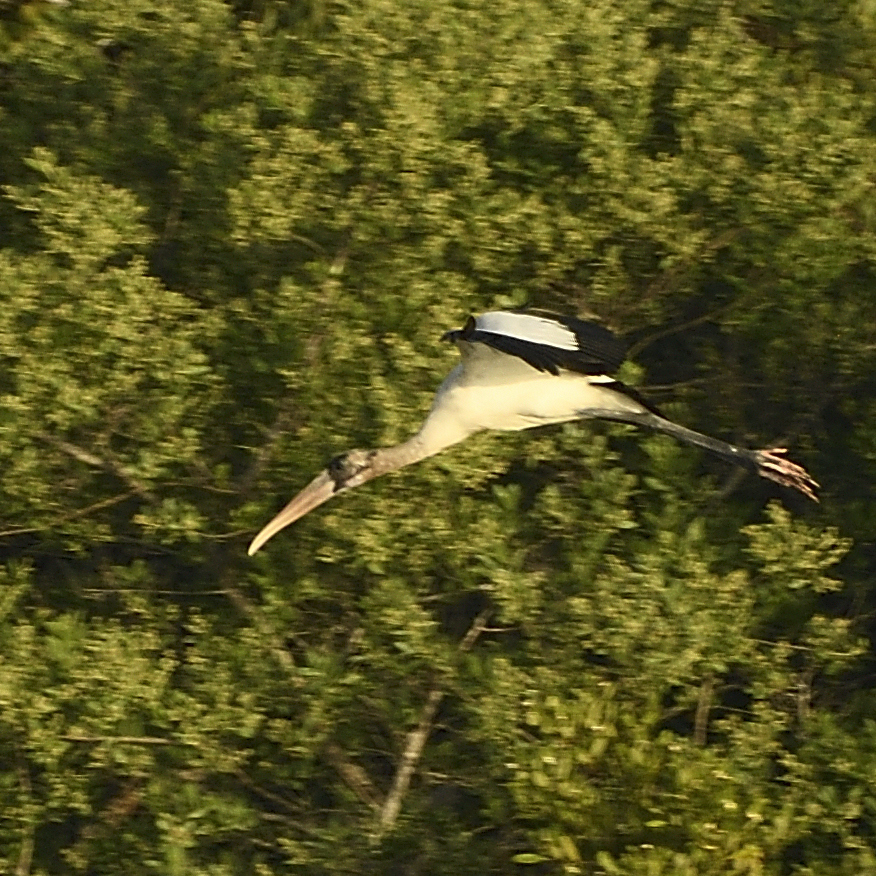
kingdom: Animalia
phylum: Chordata
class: Aves
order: Ciconiiformes
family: Ciconiidae
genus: Mycteria
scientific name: Mycteria americana
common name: Wood stork
